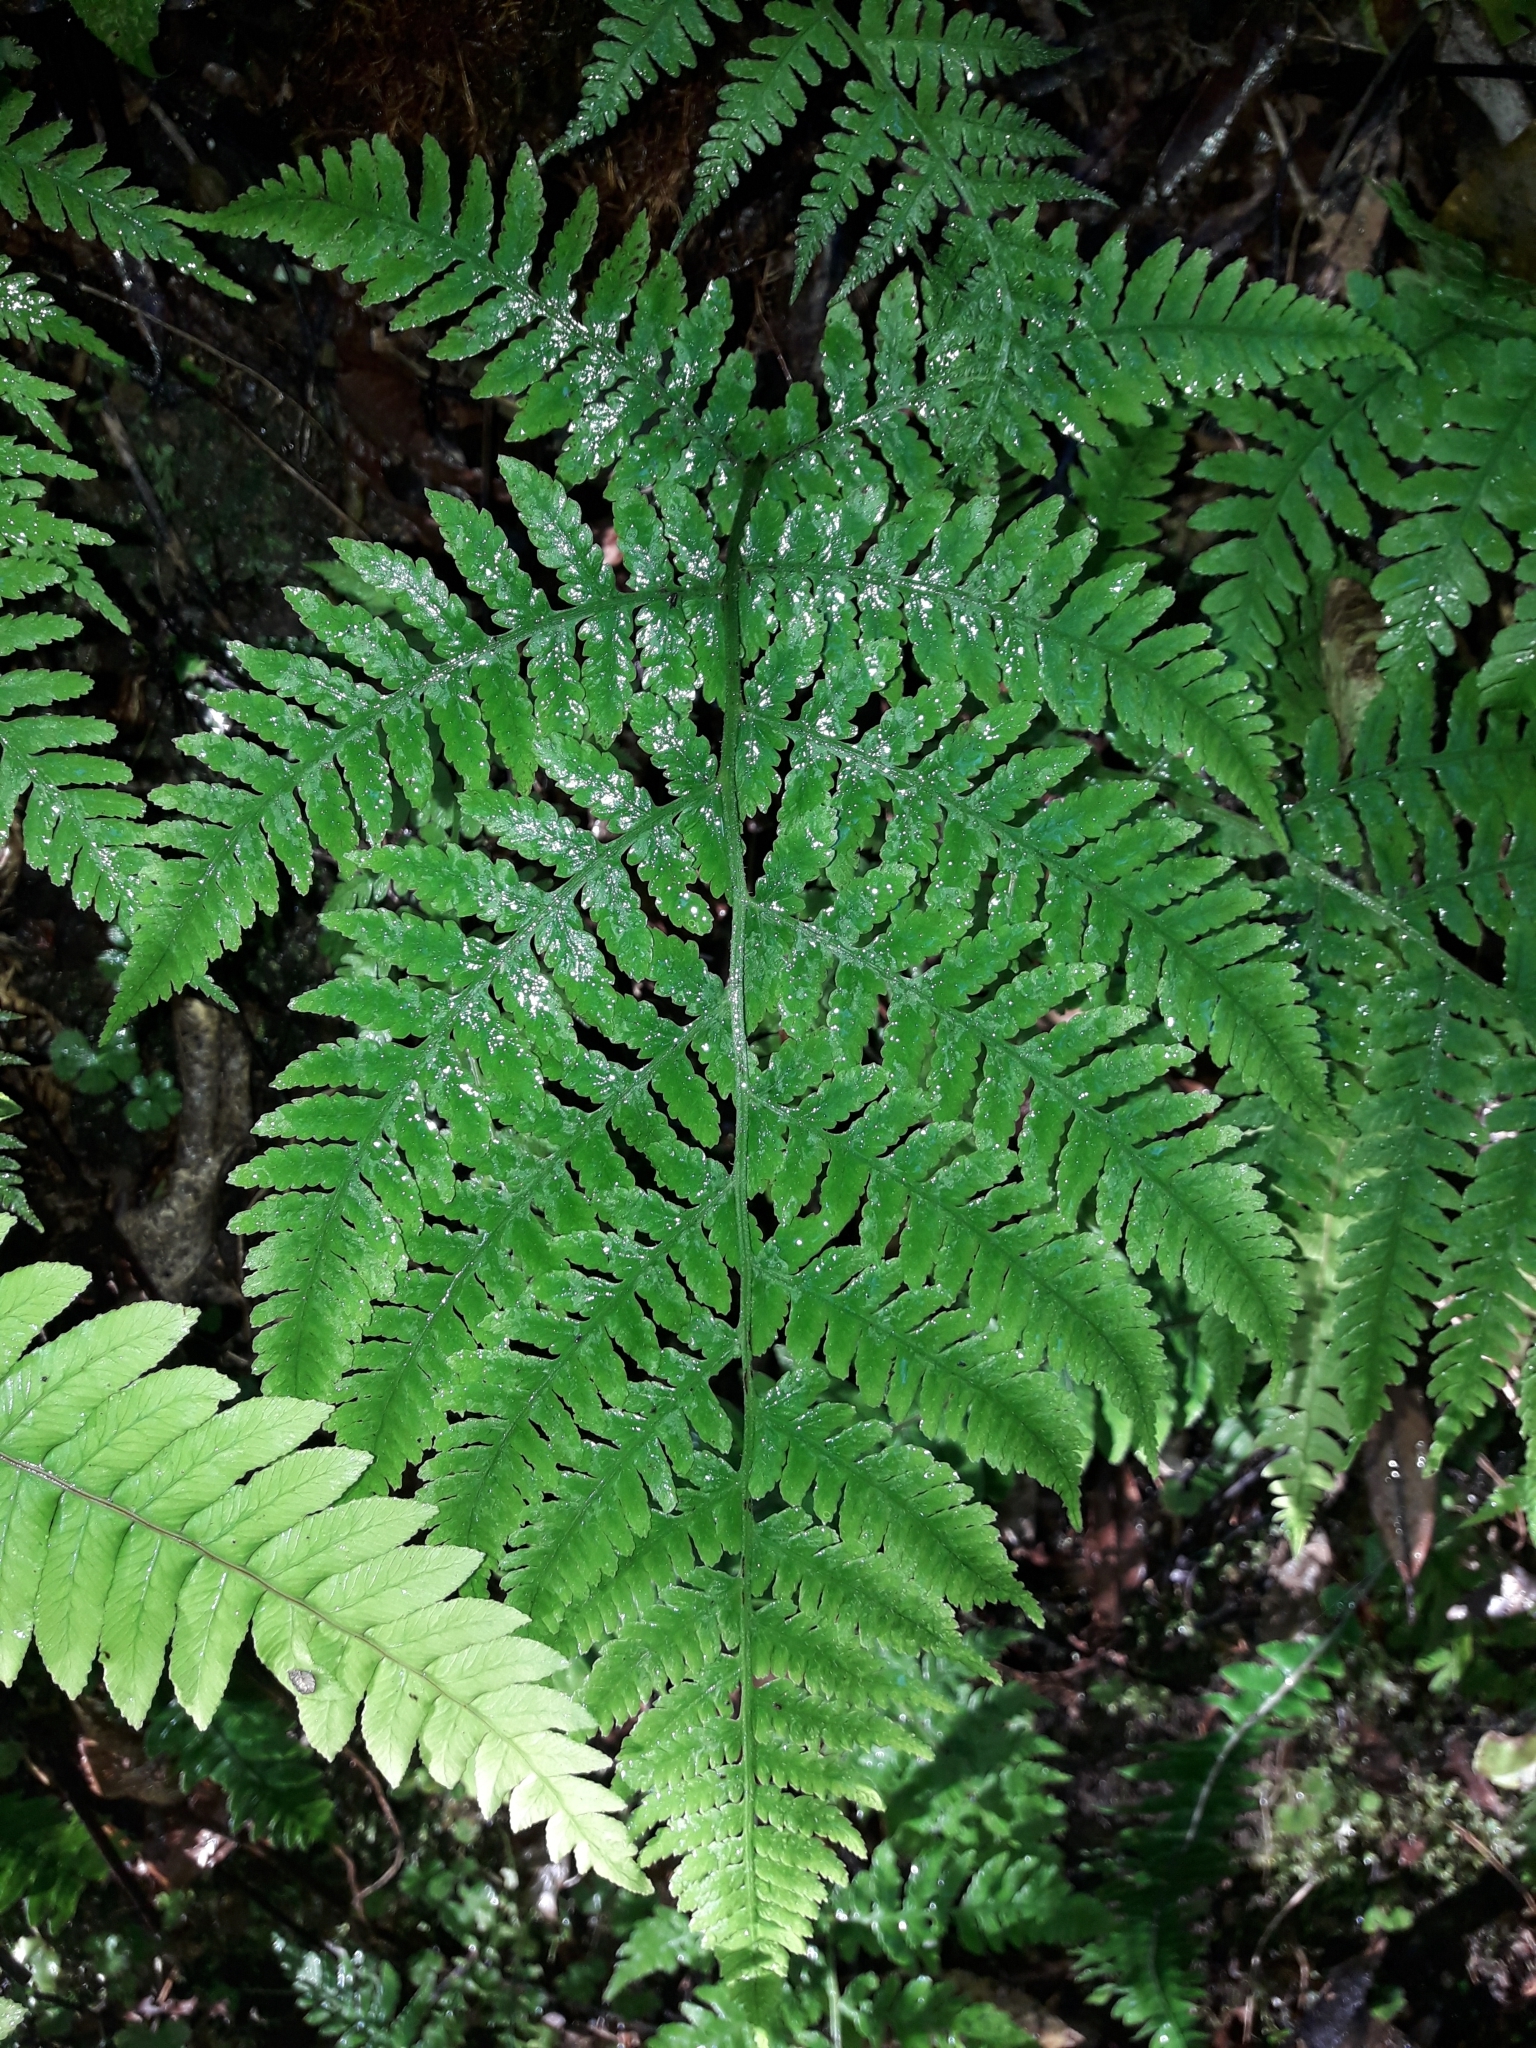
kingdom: Plantae
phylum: Tracheophyta
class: Polypodiopsida
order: Polypodiales
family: Athyriaceae
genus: Deparia
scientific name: Deparia petersenii
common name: Japanese false spleenwort
